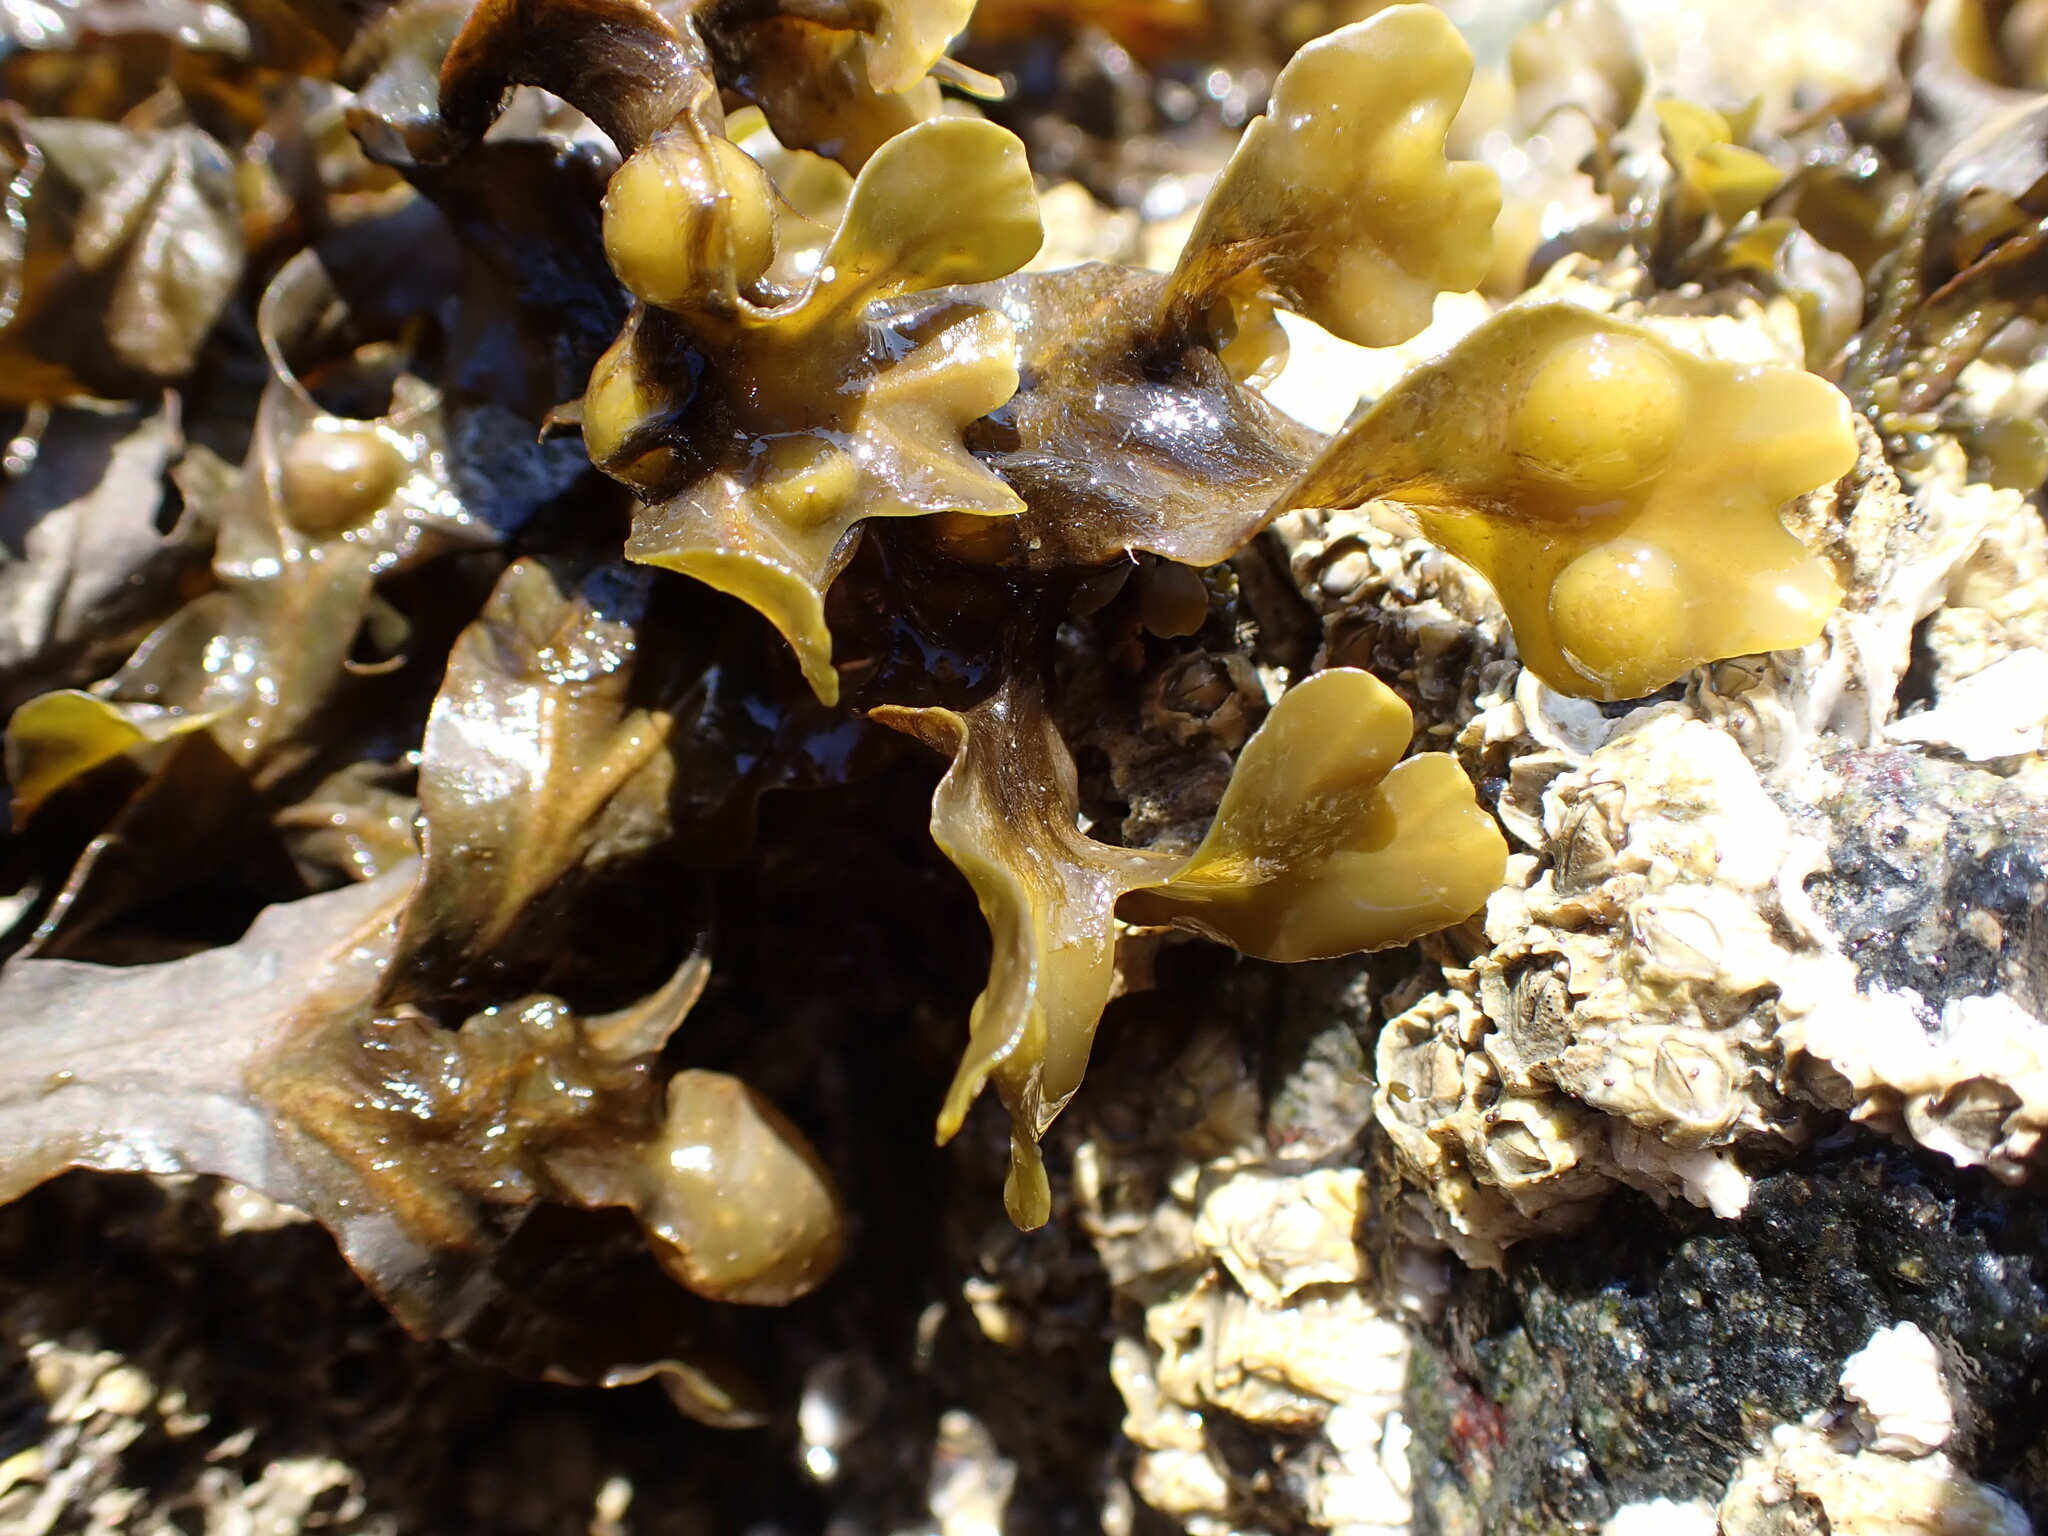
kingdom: Chromista
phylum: Ochrophyta
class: Phaeophyceae
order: Fucales
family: Fucaceae
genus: Fucus
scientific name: Fucus vesiculosus
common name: Bladder wrack
